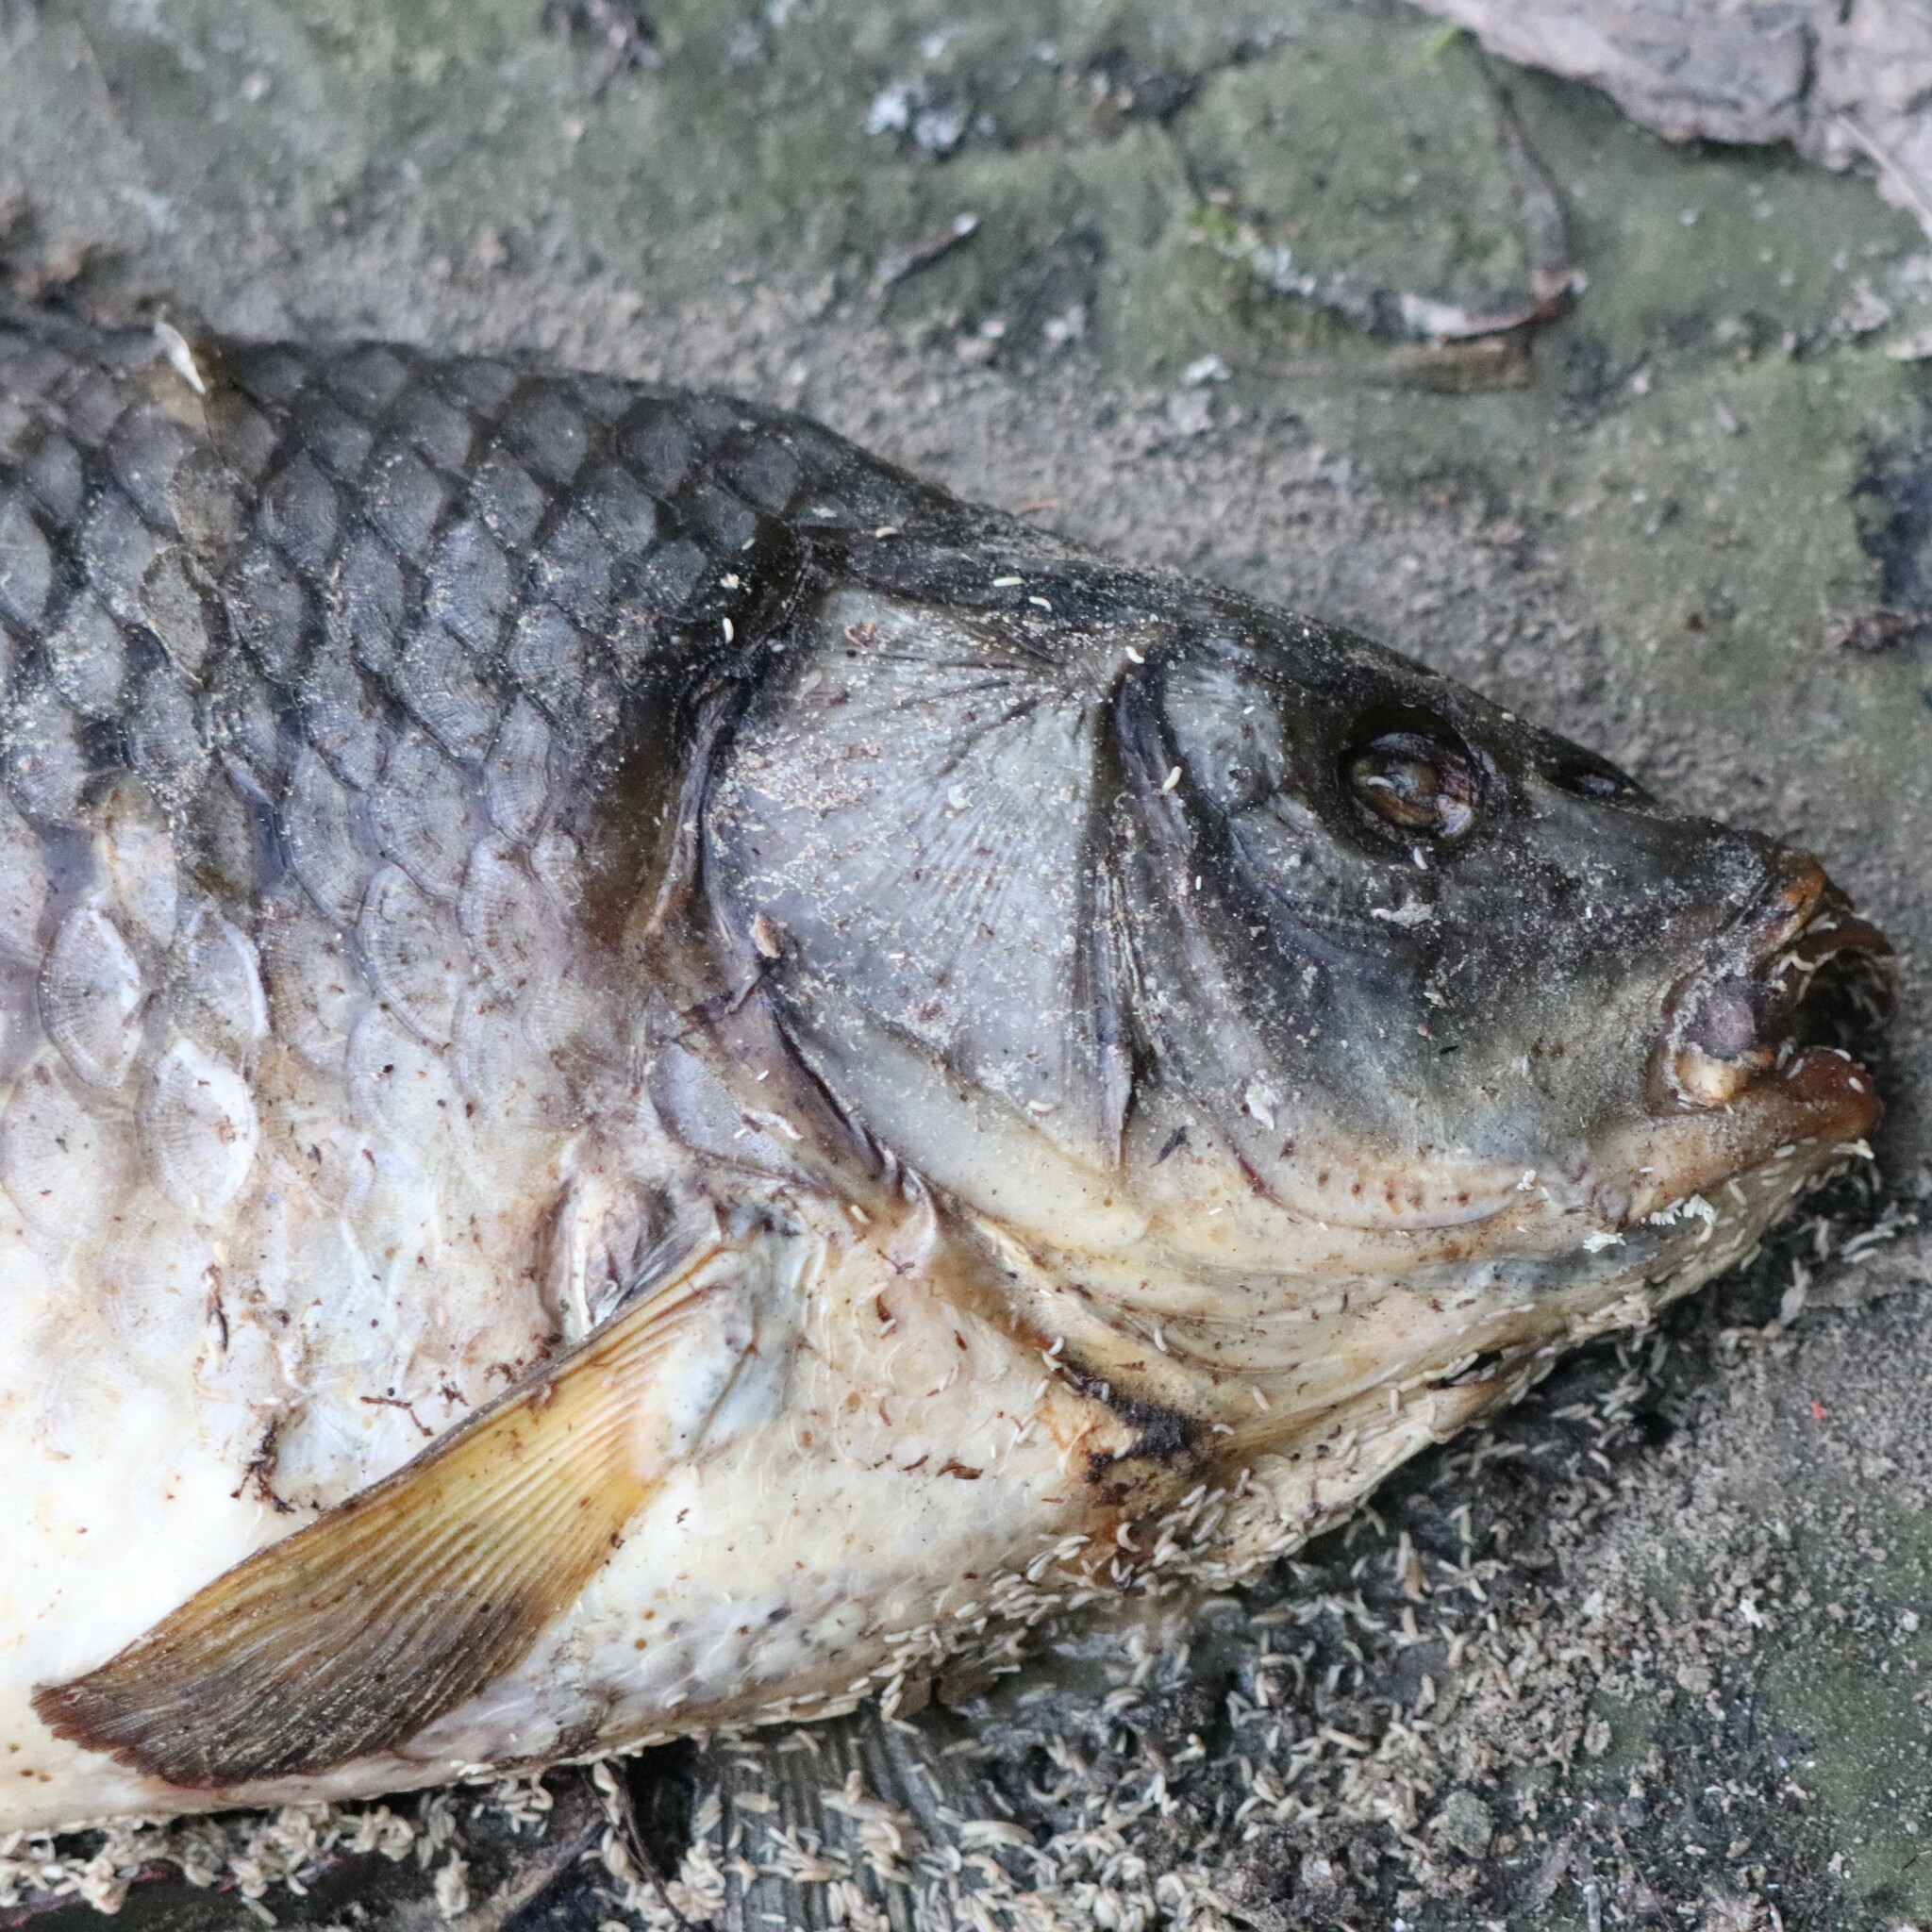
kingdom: Animalia
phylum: Chordata
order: Cypriniformes
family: Cyprinidae
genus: Cyprinus
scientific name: Cyprinus carpio
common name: Common carp
